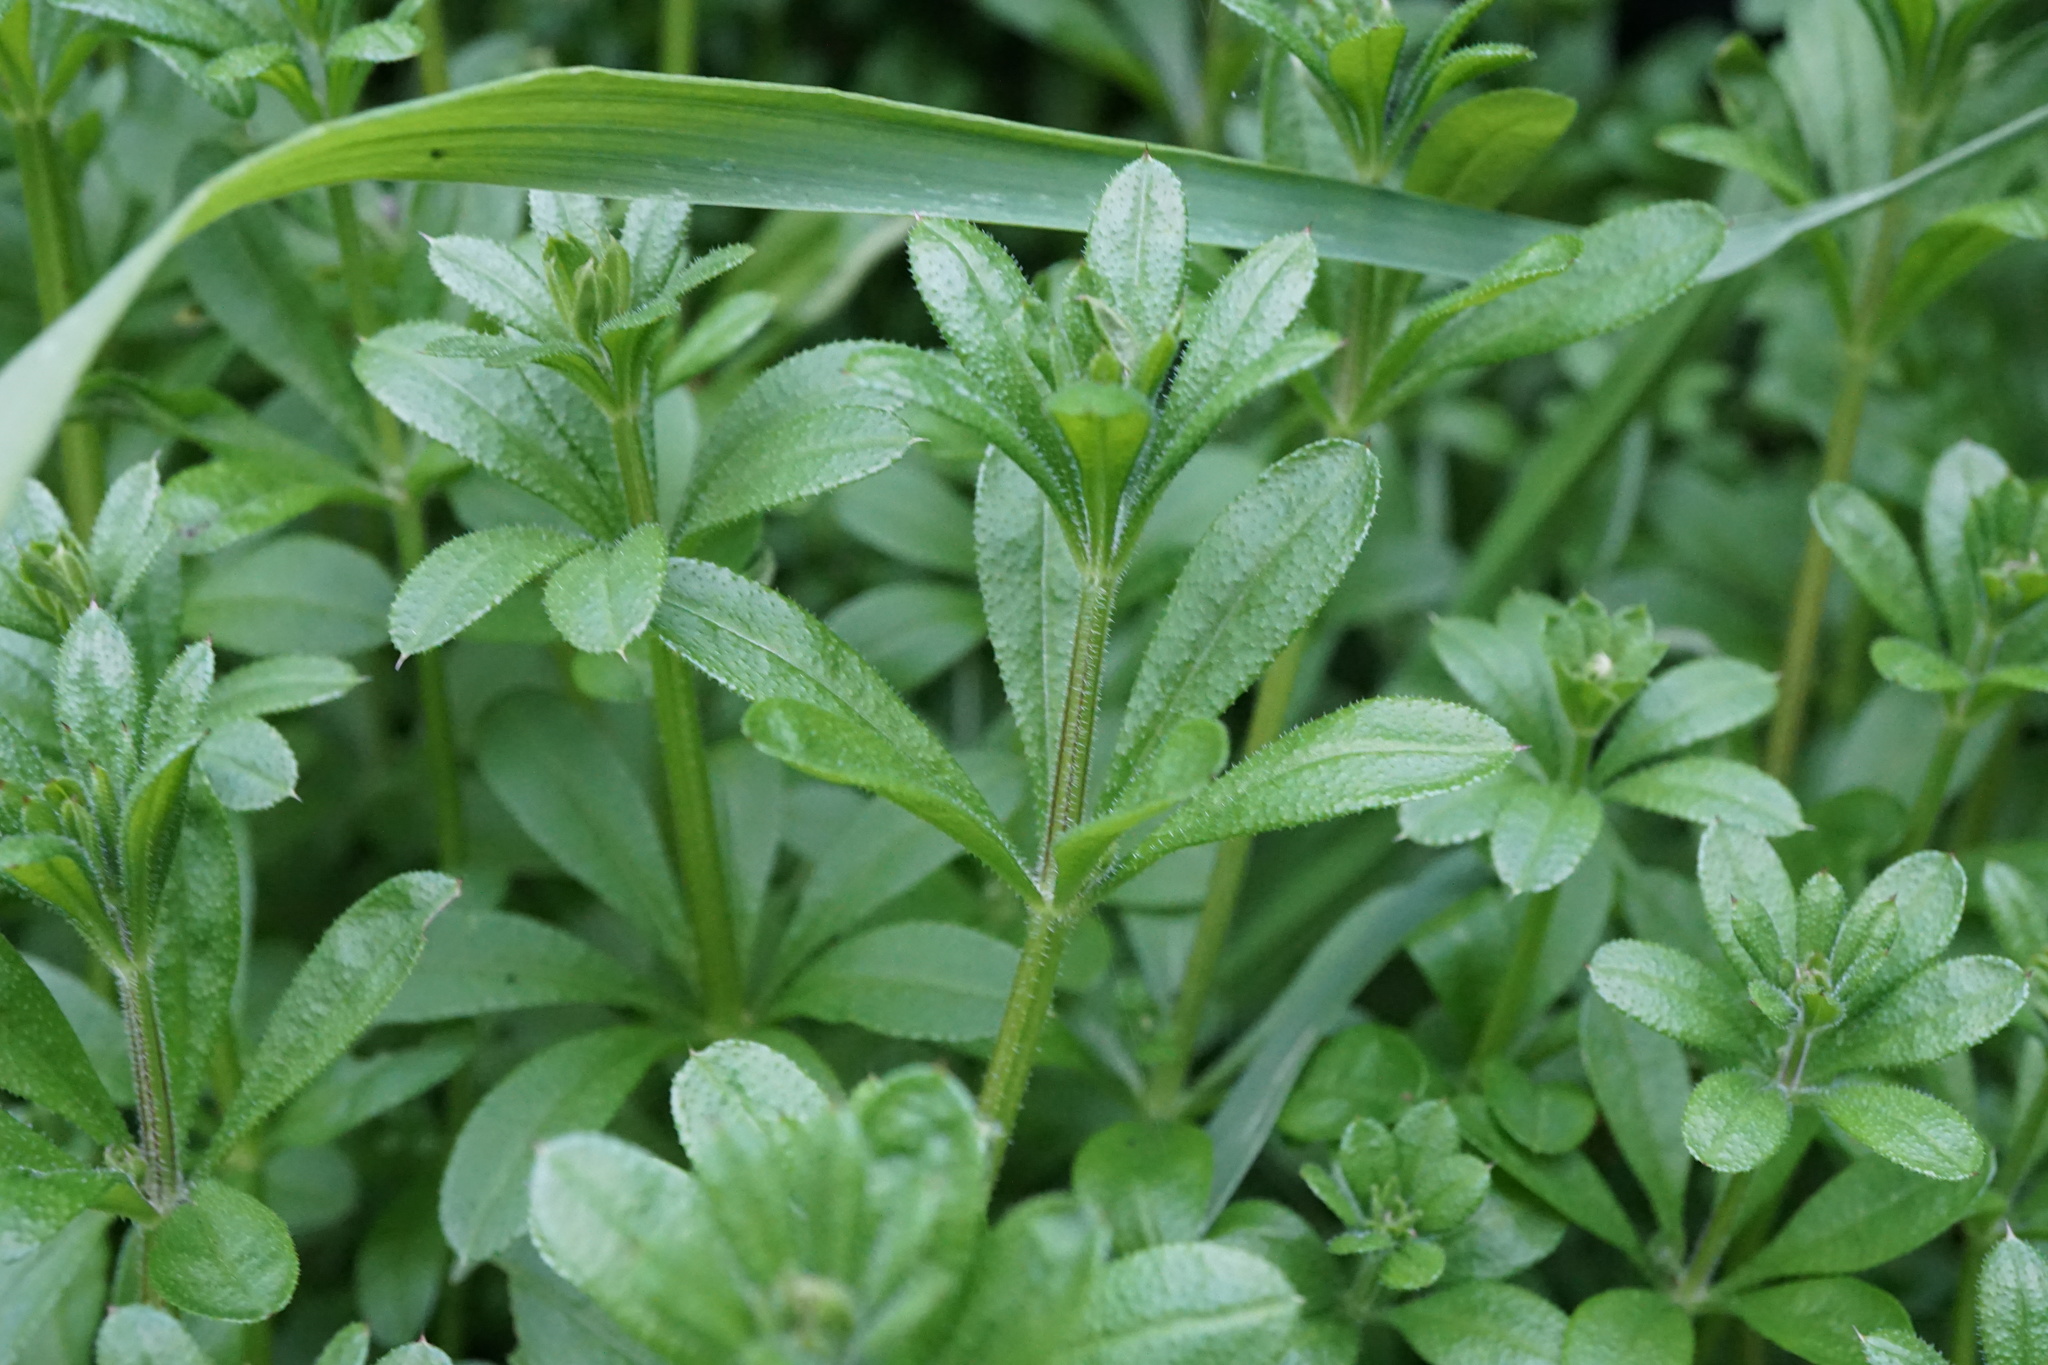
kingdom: Plantae
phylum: Tracheophyta
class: Magnoliopsida
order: Gentianales
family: Rubiaceae
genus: Galium
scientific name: Galium aparine
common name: Cleavers
